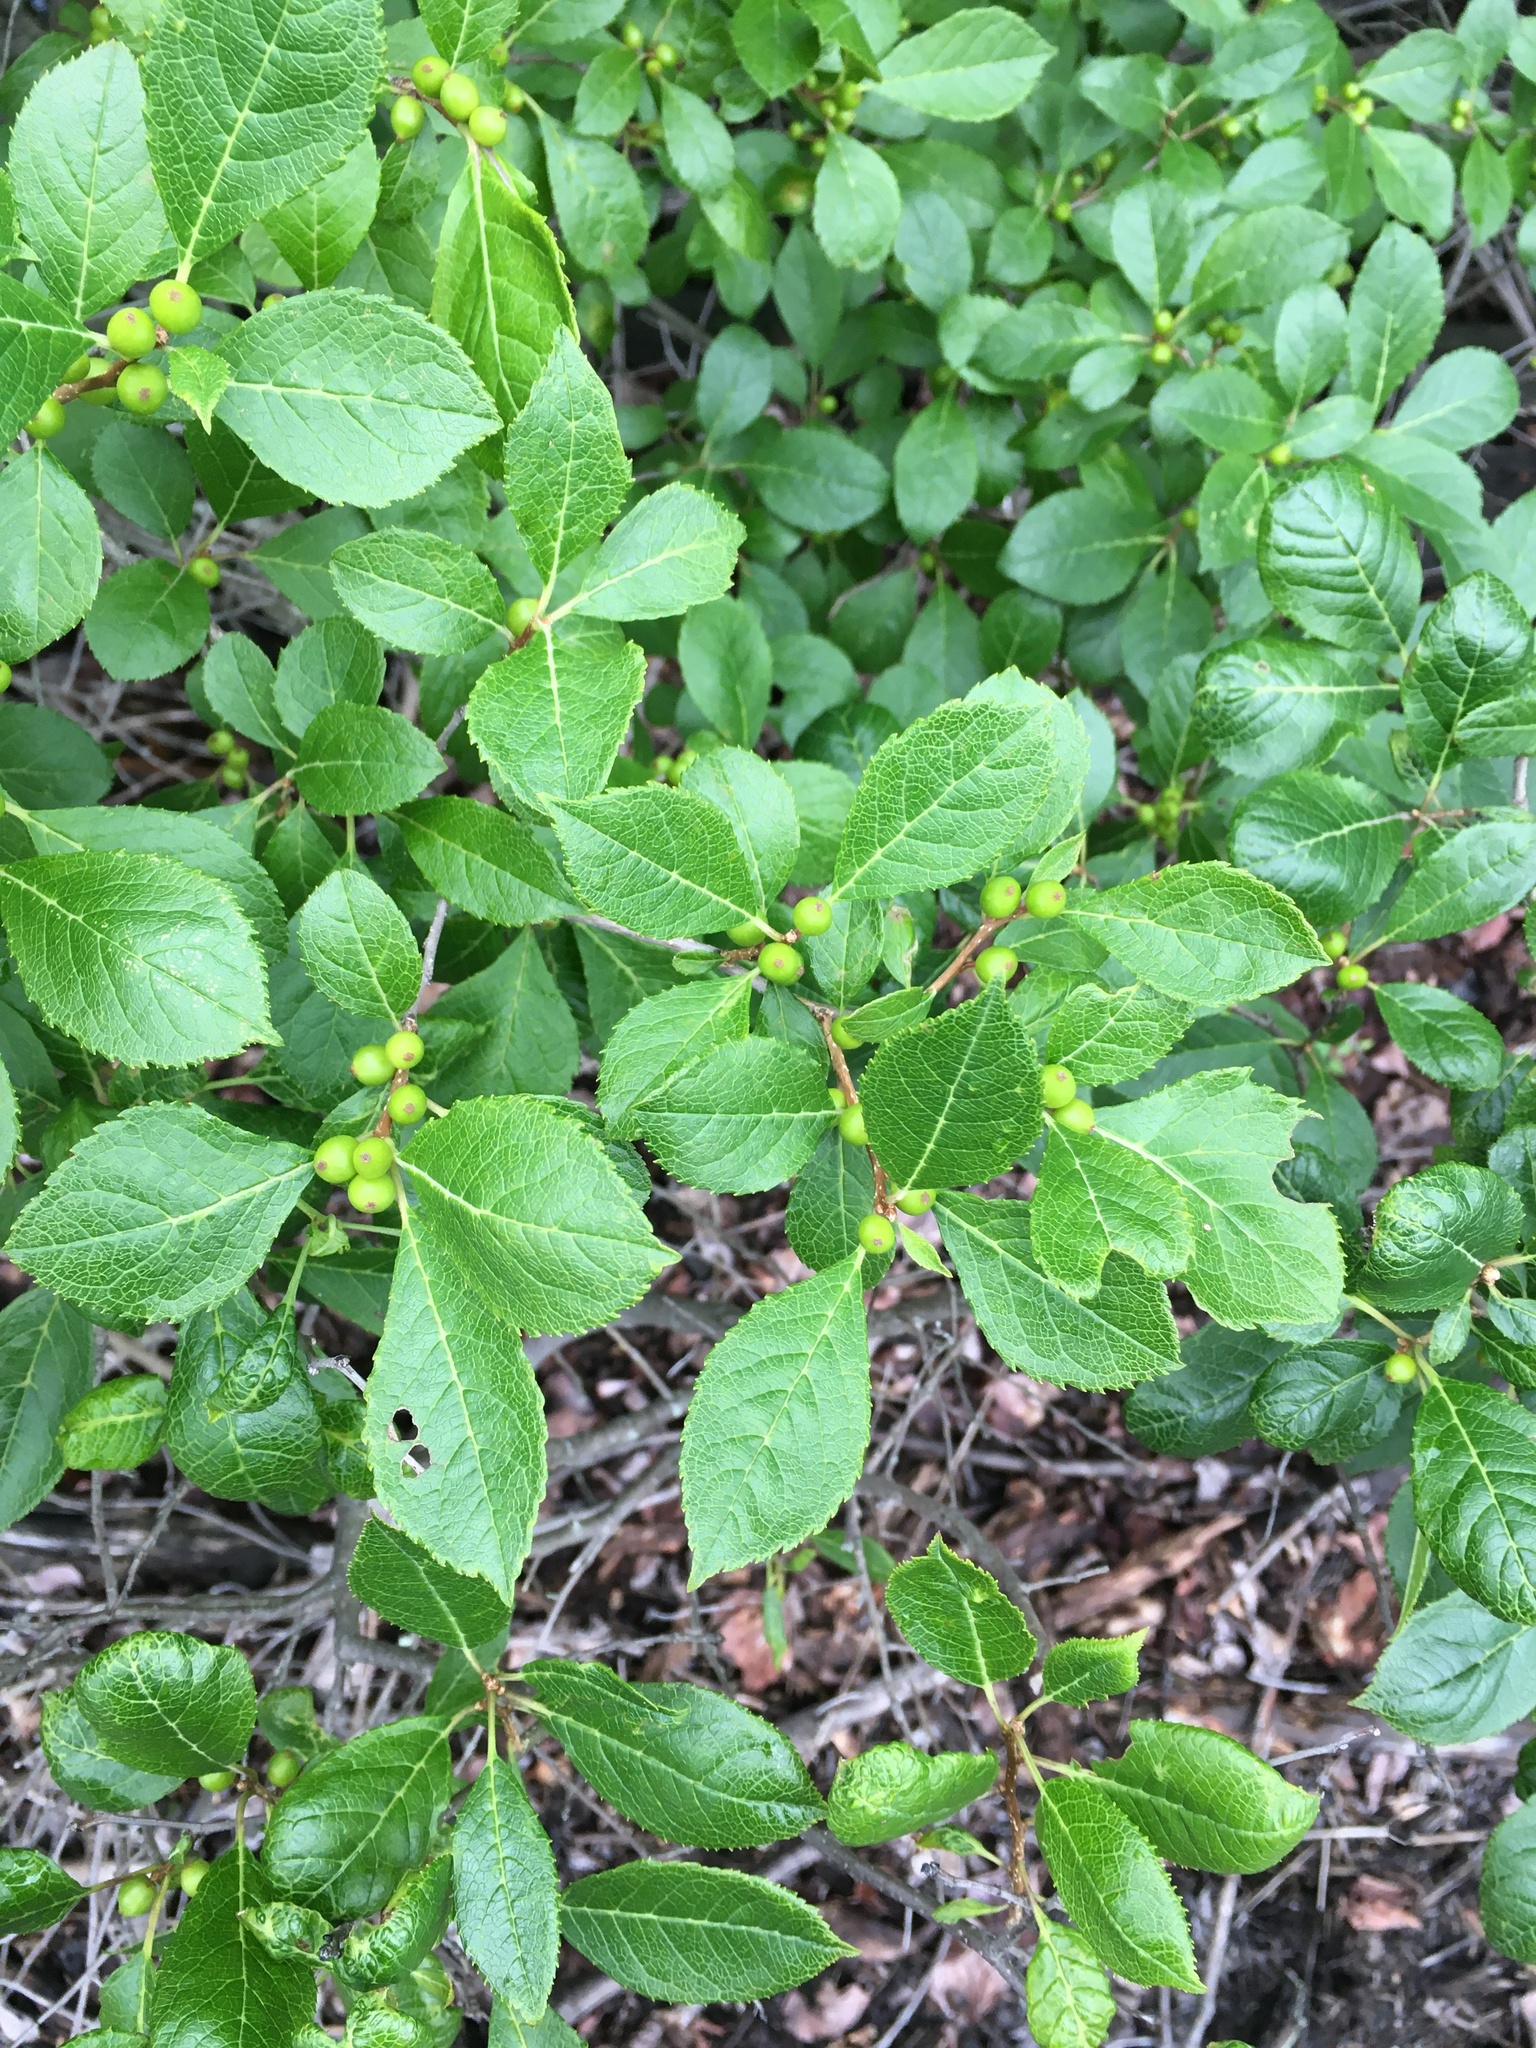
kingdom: Plantae
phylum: Tracheophyta
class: Magnoliopsida
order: Aquifoliales
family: Aquifoliaceae
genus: Ilex
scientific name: Ilex verticillata
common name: Virginia winterberry
